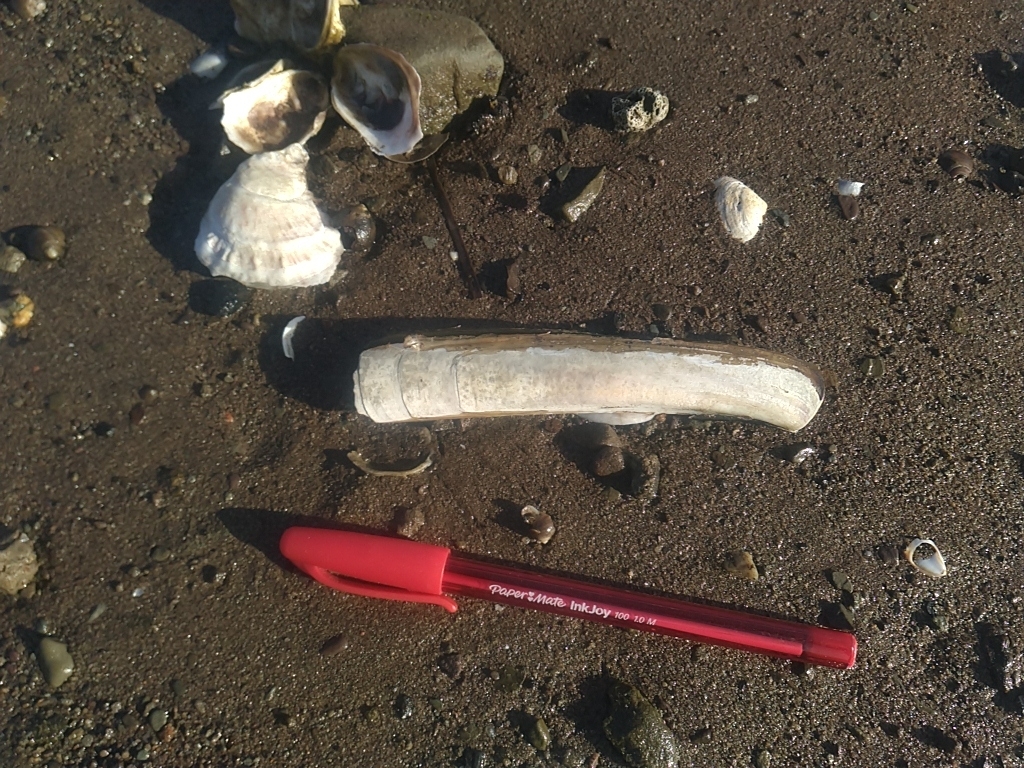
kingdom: Animalia
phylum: Mollusca
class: Bivalvia
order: Adapedonta
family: Pharidae
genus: Ensis
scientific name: Ensis leei
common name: American jack knife clam
